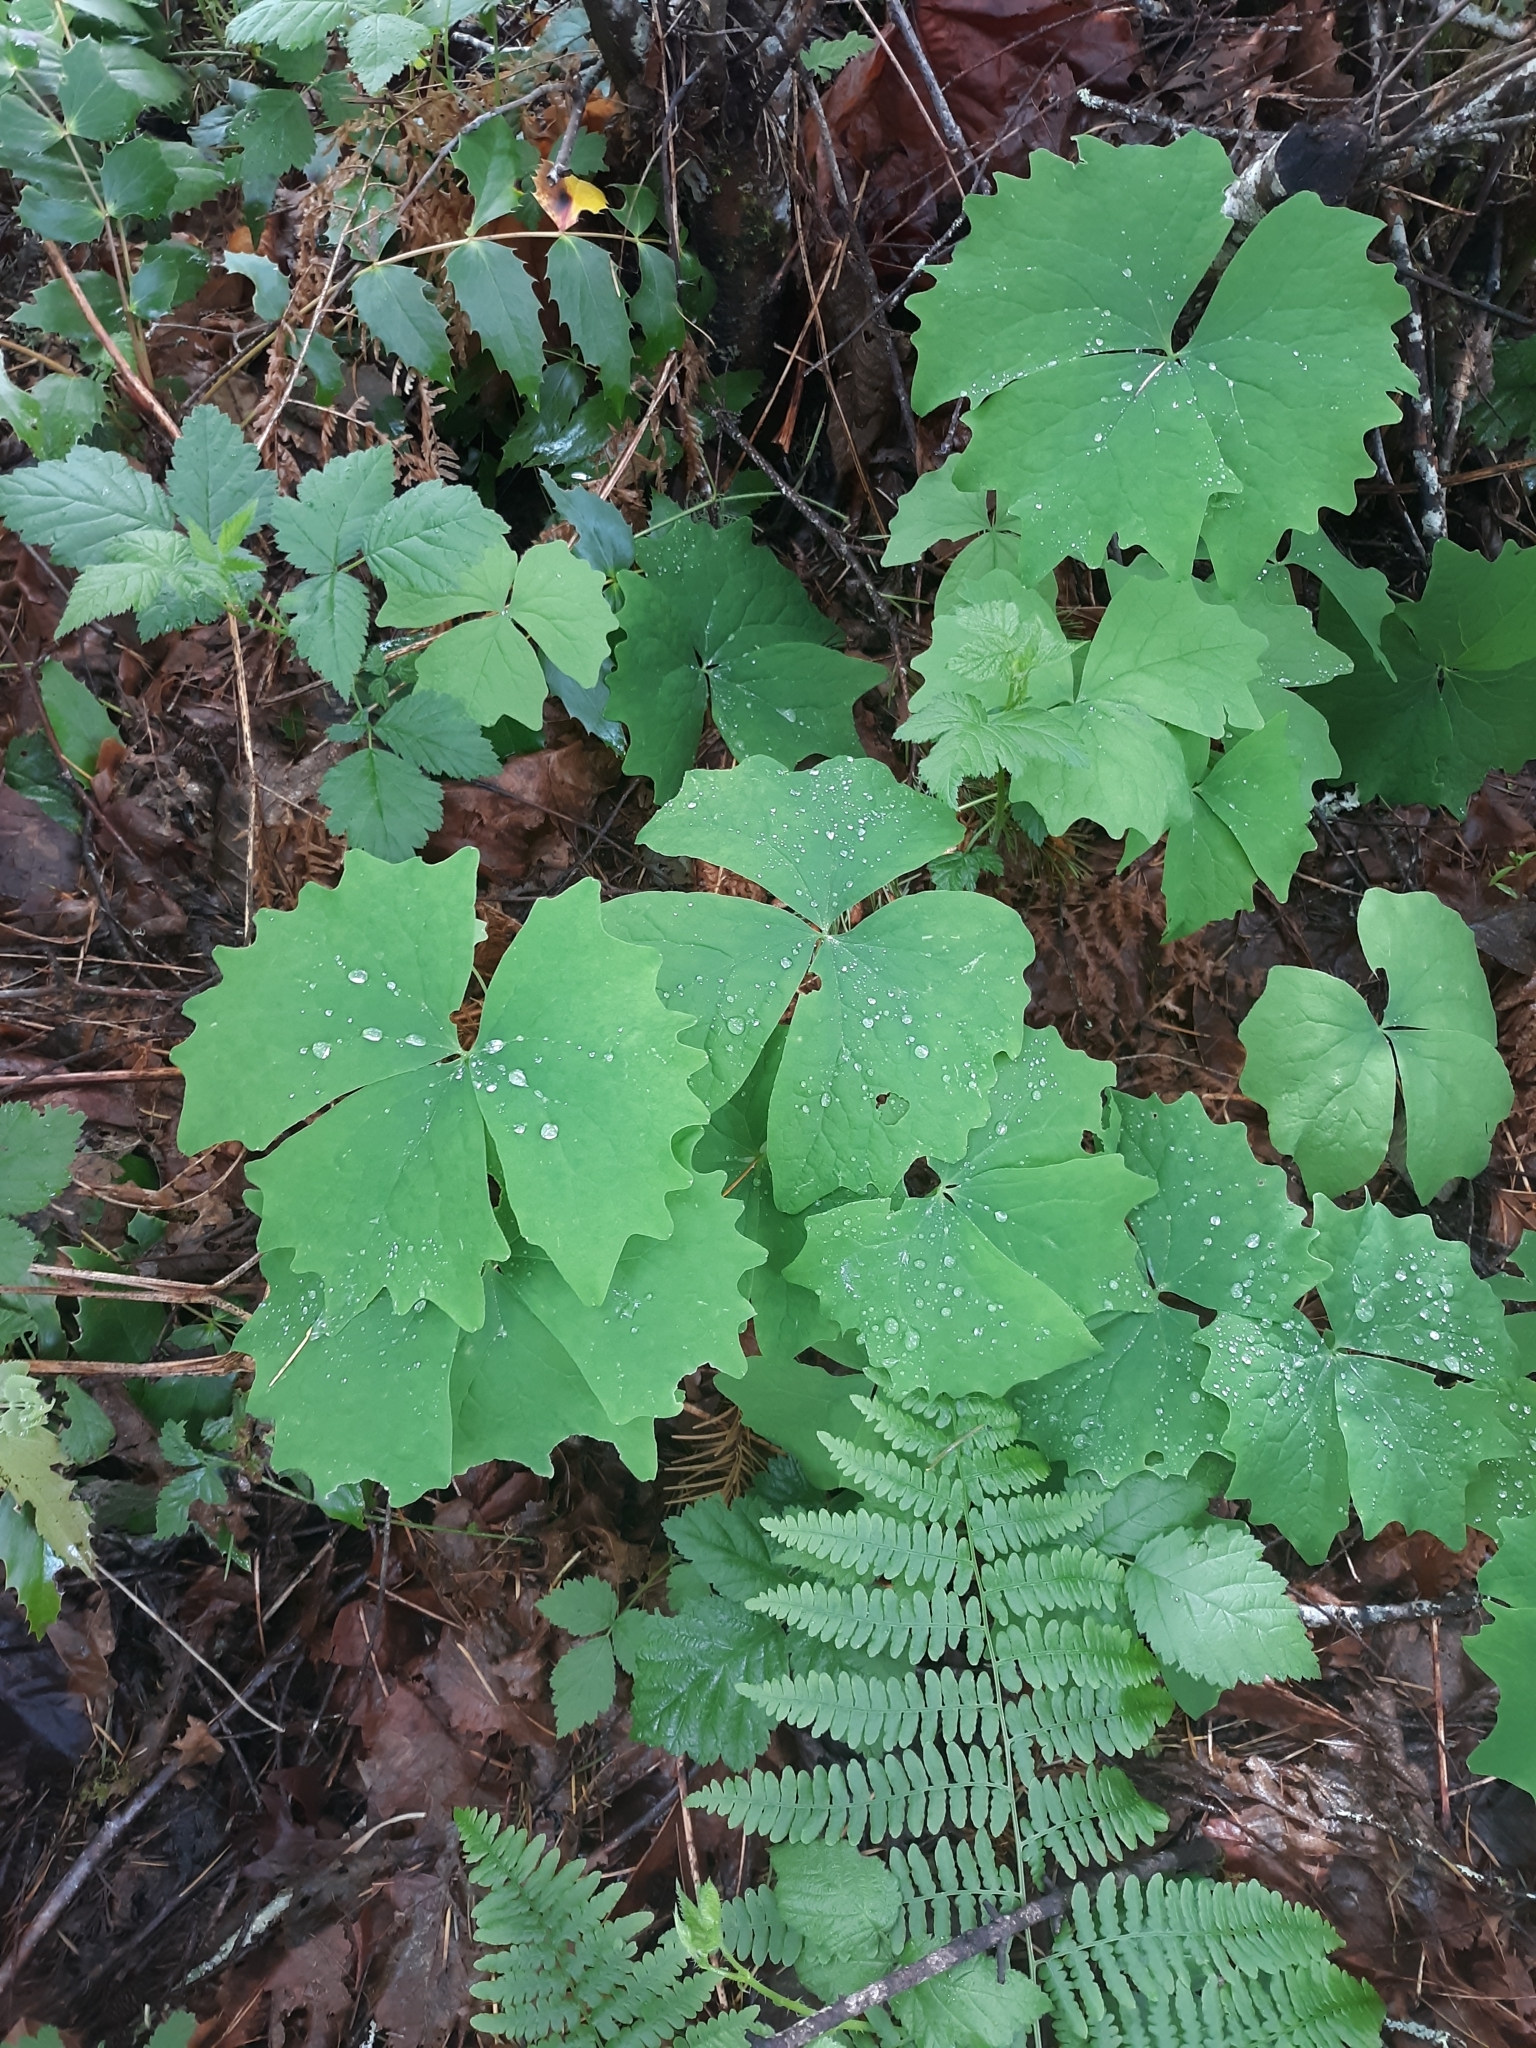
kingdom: Plantae
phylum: Tracheophyta
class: Magnoliopsida
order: Ranunculales
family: Berberidaceae
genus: Achlys
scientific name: Achlys triphylla
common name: Vanilla-leaf
